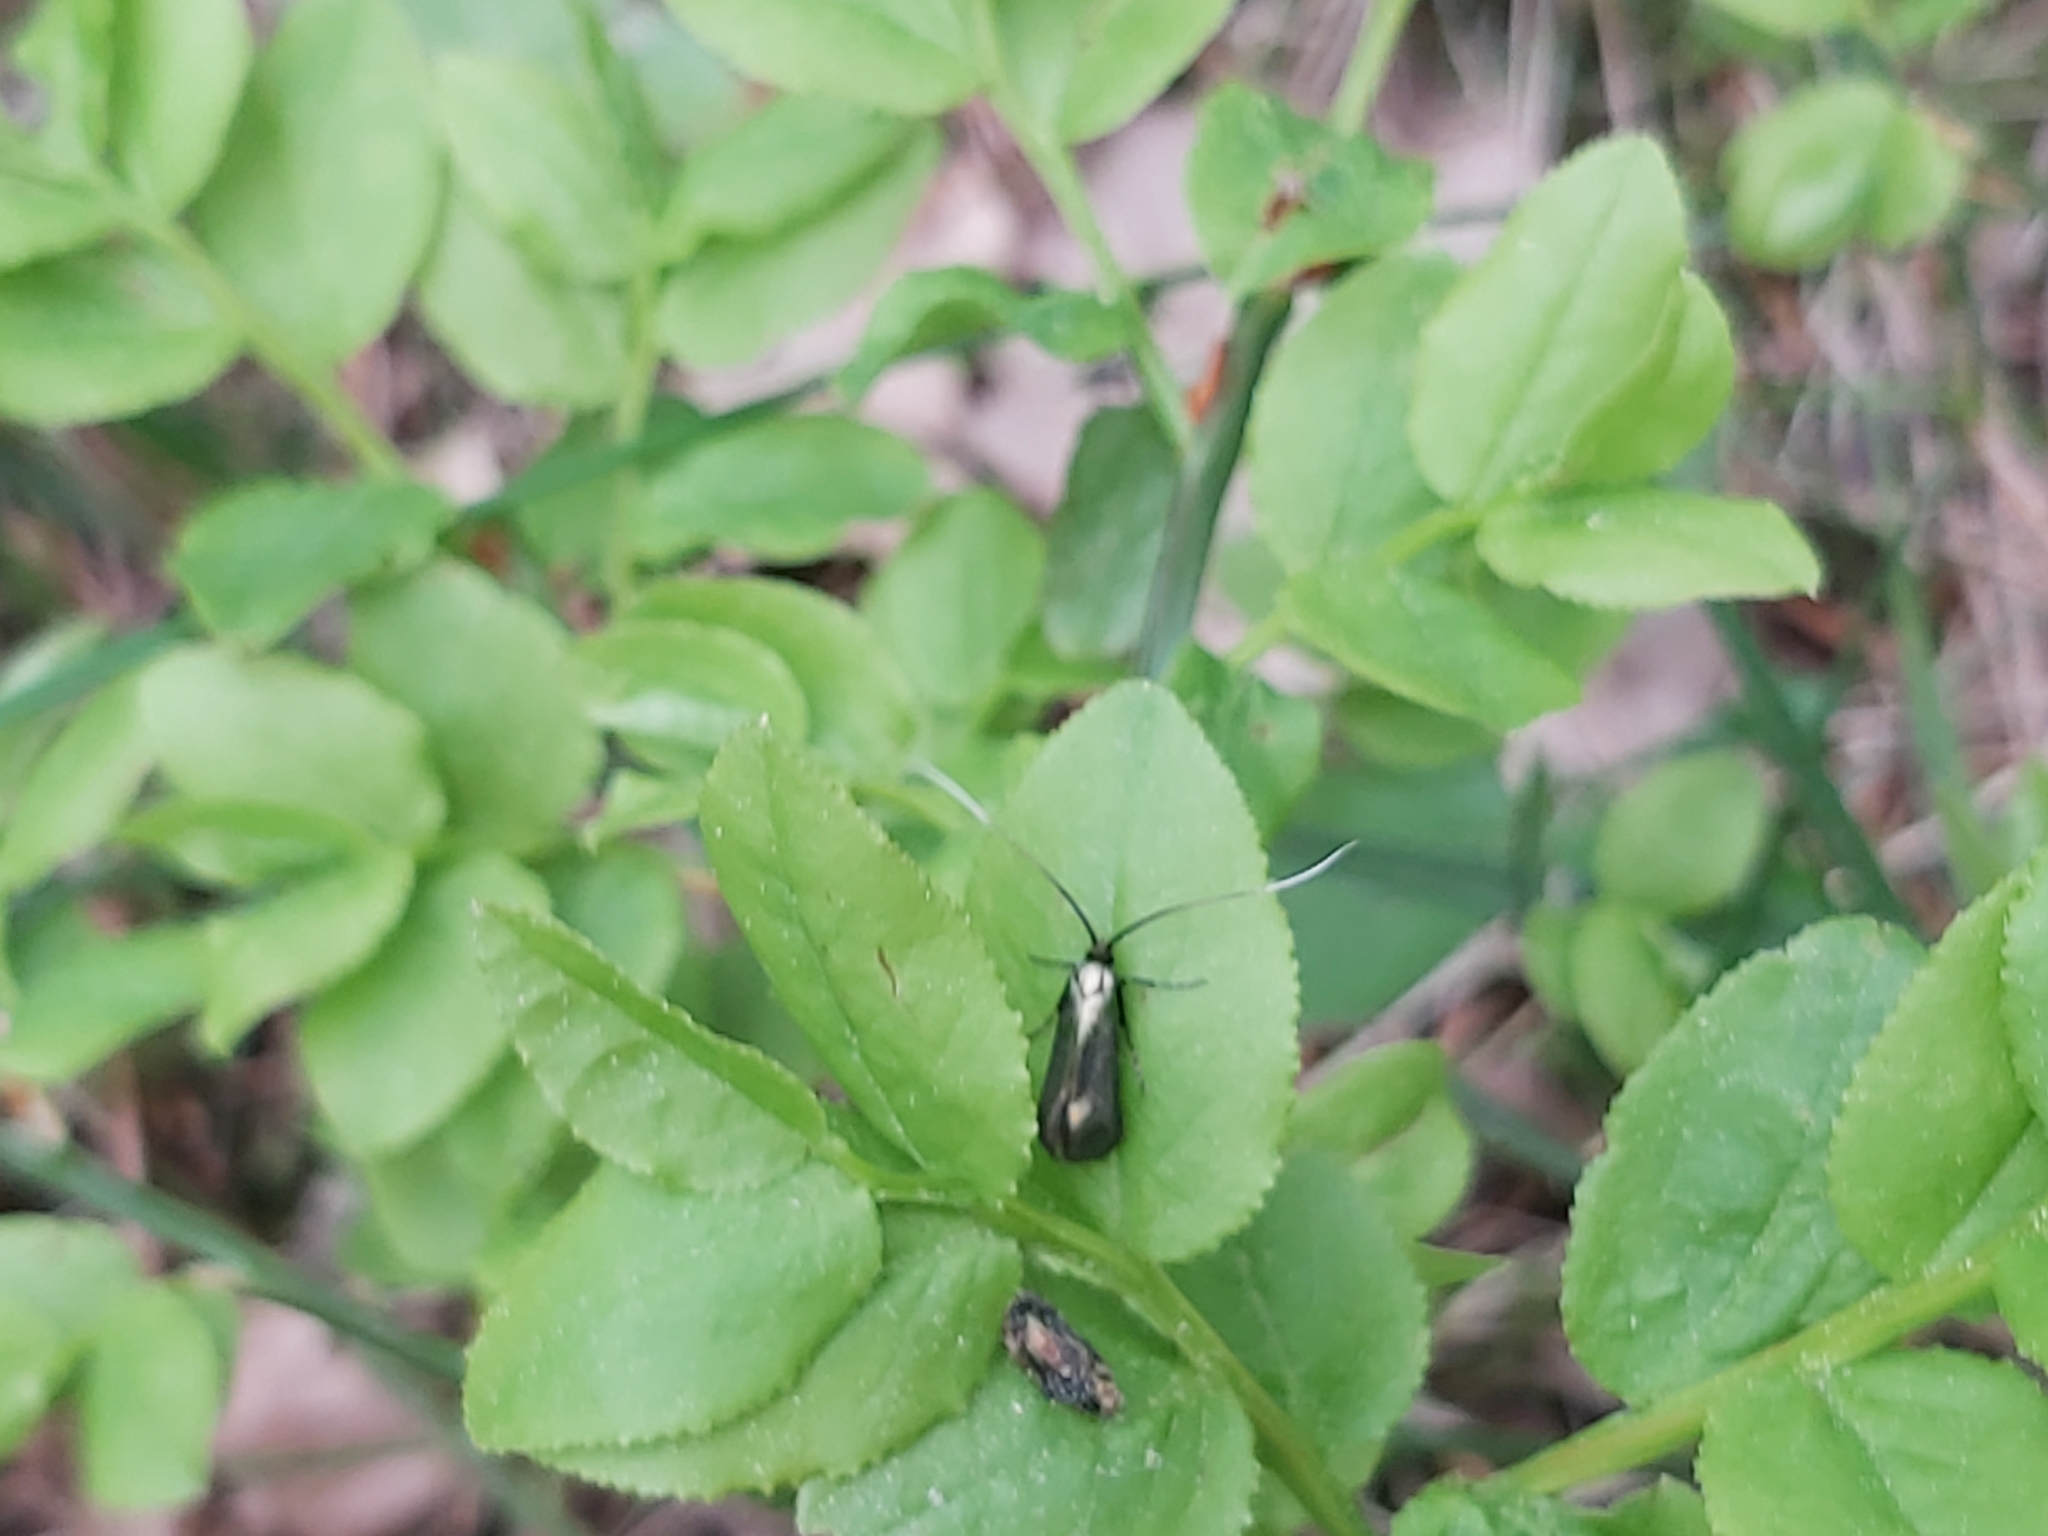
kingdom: Animalia
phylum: Arthropoda
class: Insecta
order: Lepidoptera
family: Adelidae
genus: Adela
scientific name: Adela viridella
